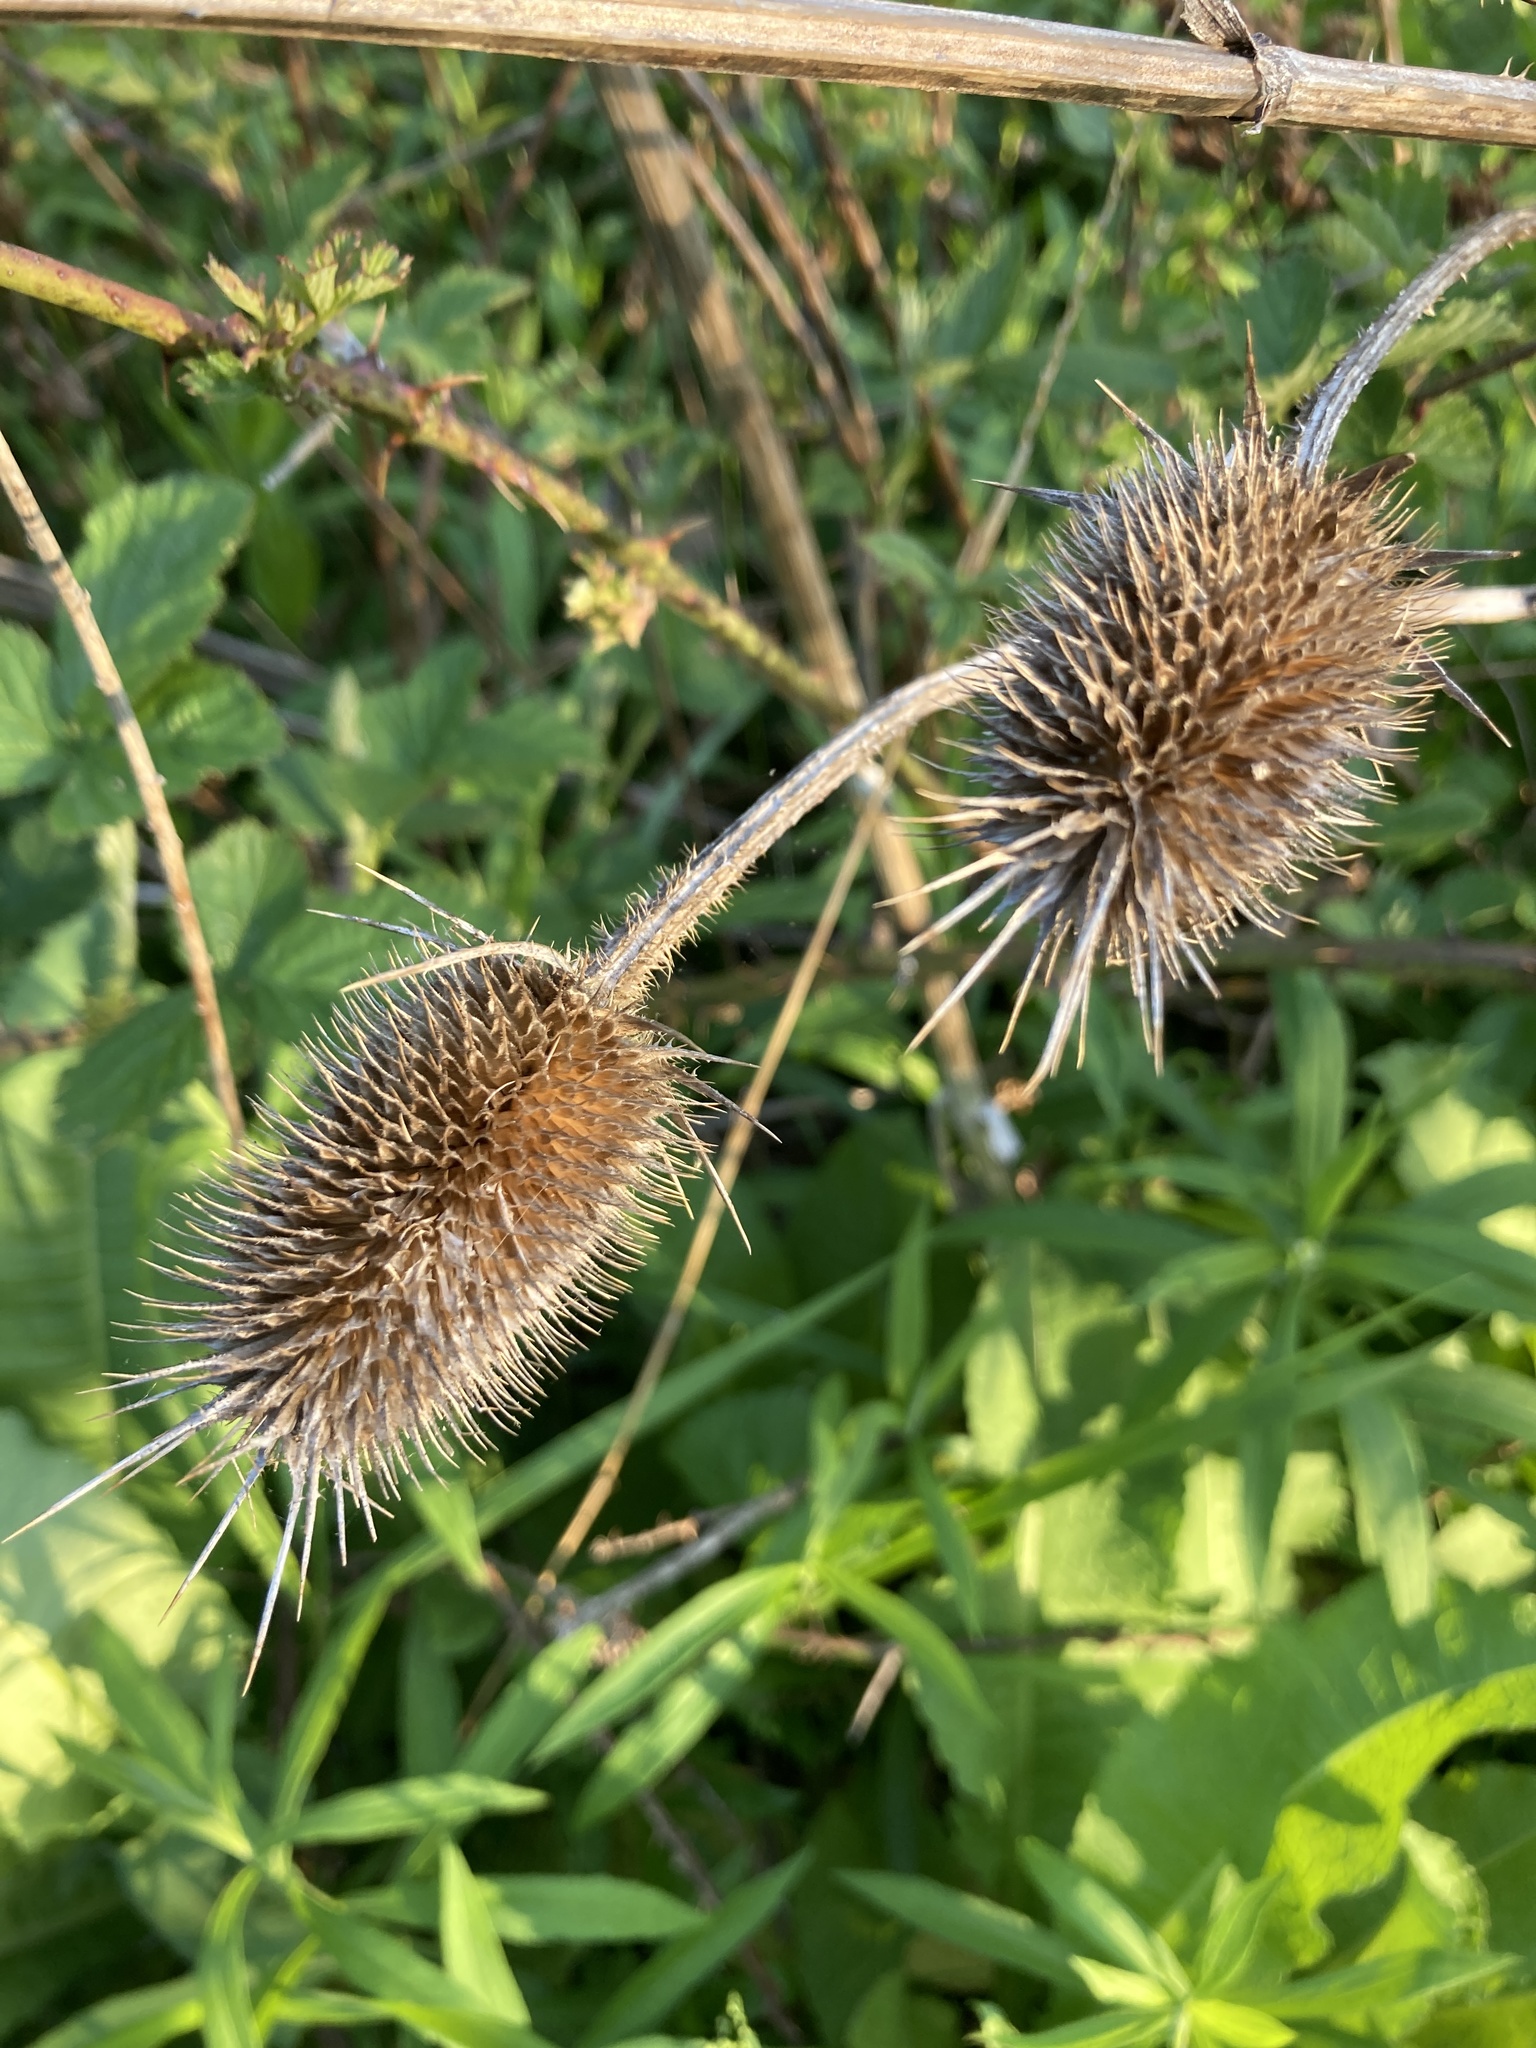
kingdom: Plantae
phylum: Tracheophyta
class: Magnoliopsida
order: Dipsacales
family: Caprifoliaceae
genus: Dipsacus
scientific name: Dipsacus laciniatus
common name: Cut-leaved teasel
